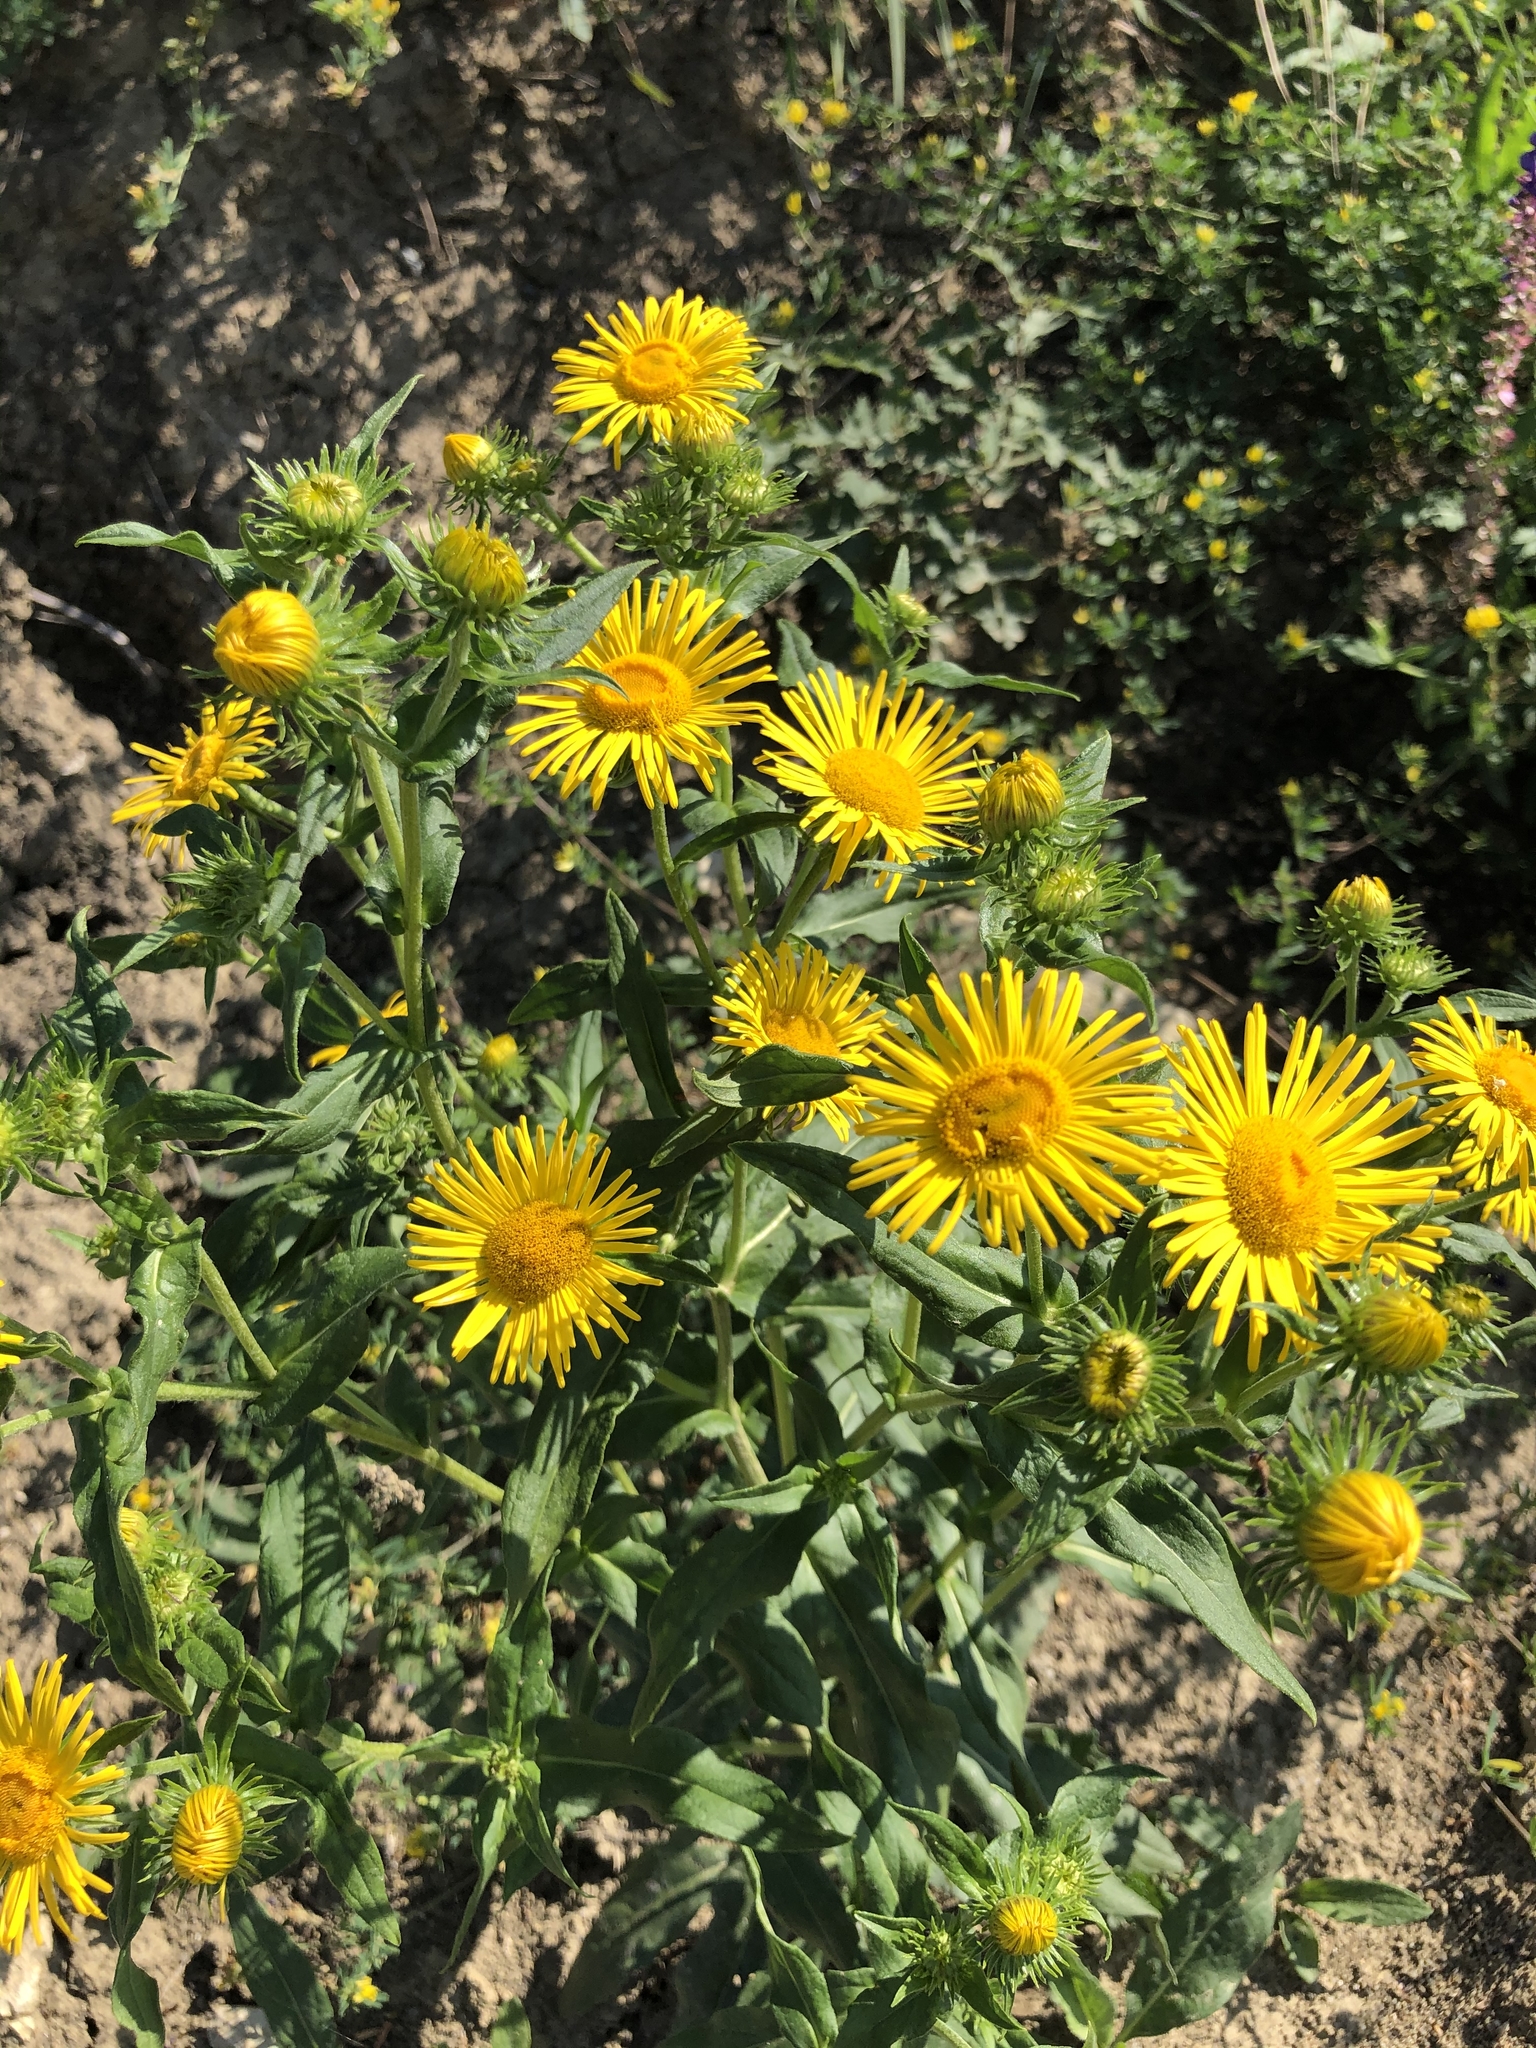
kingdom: Plantae
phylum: Tracheophyta
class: Magnoliopsida
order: Asterales
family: Asteraceae
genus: Pentanema
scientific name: Pentanema britannicum
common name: British elecampane
